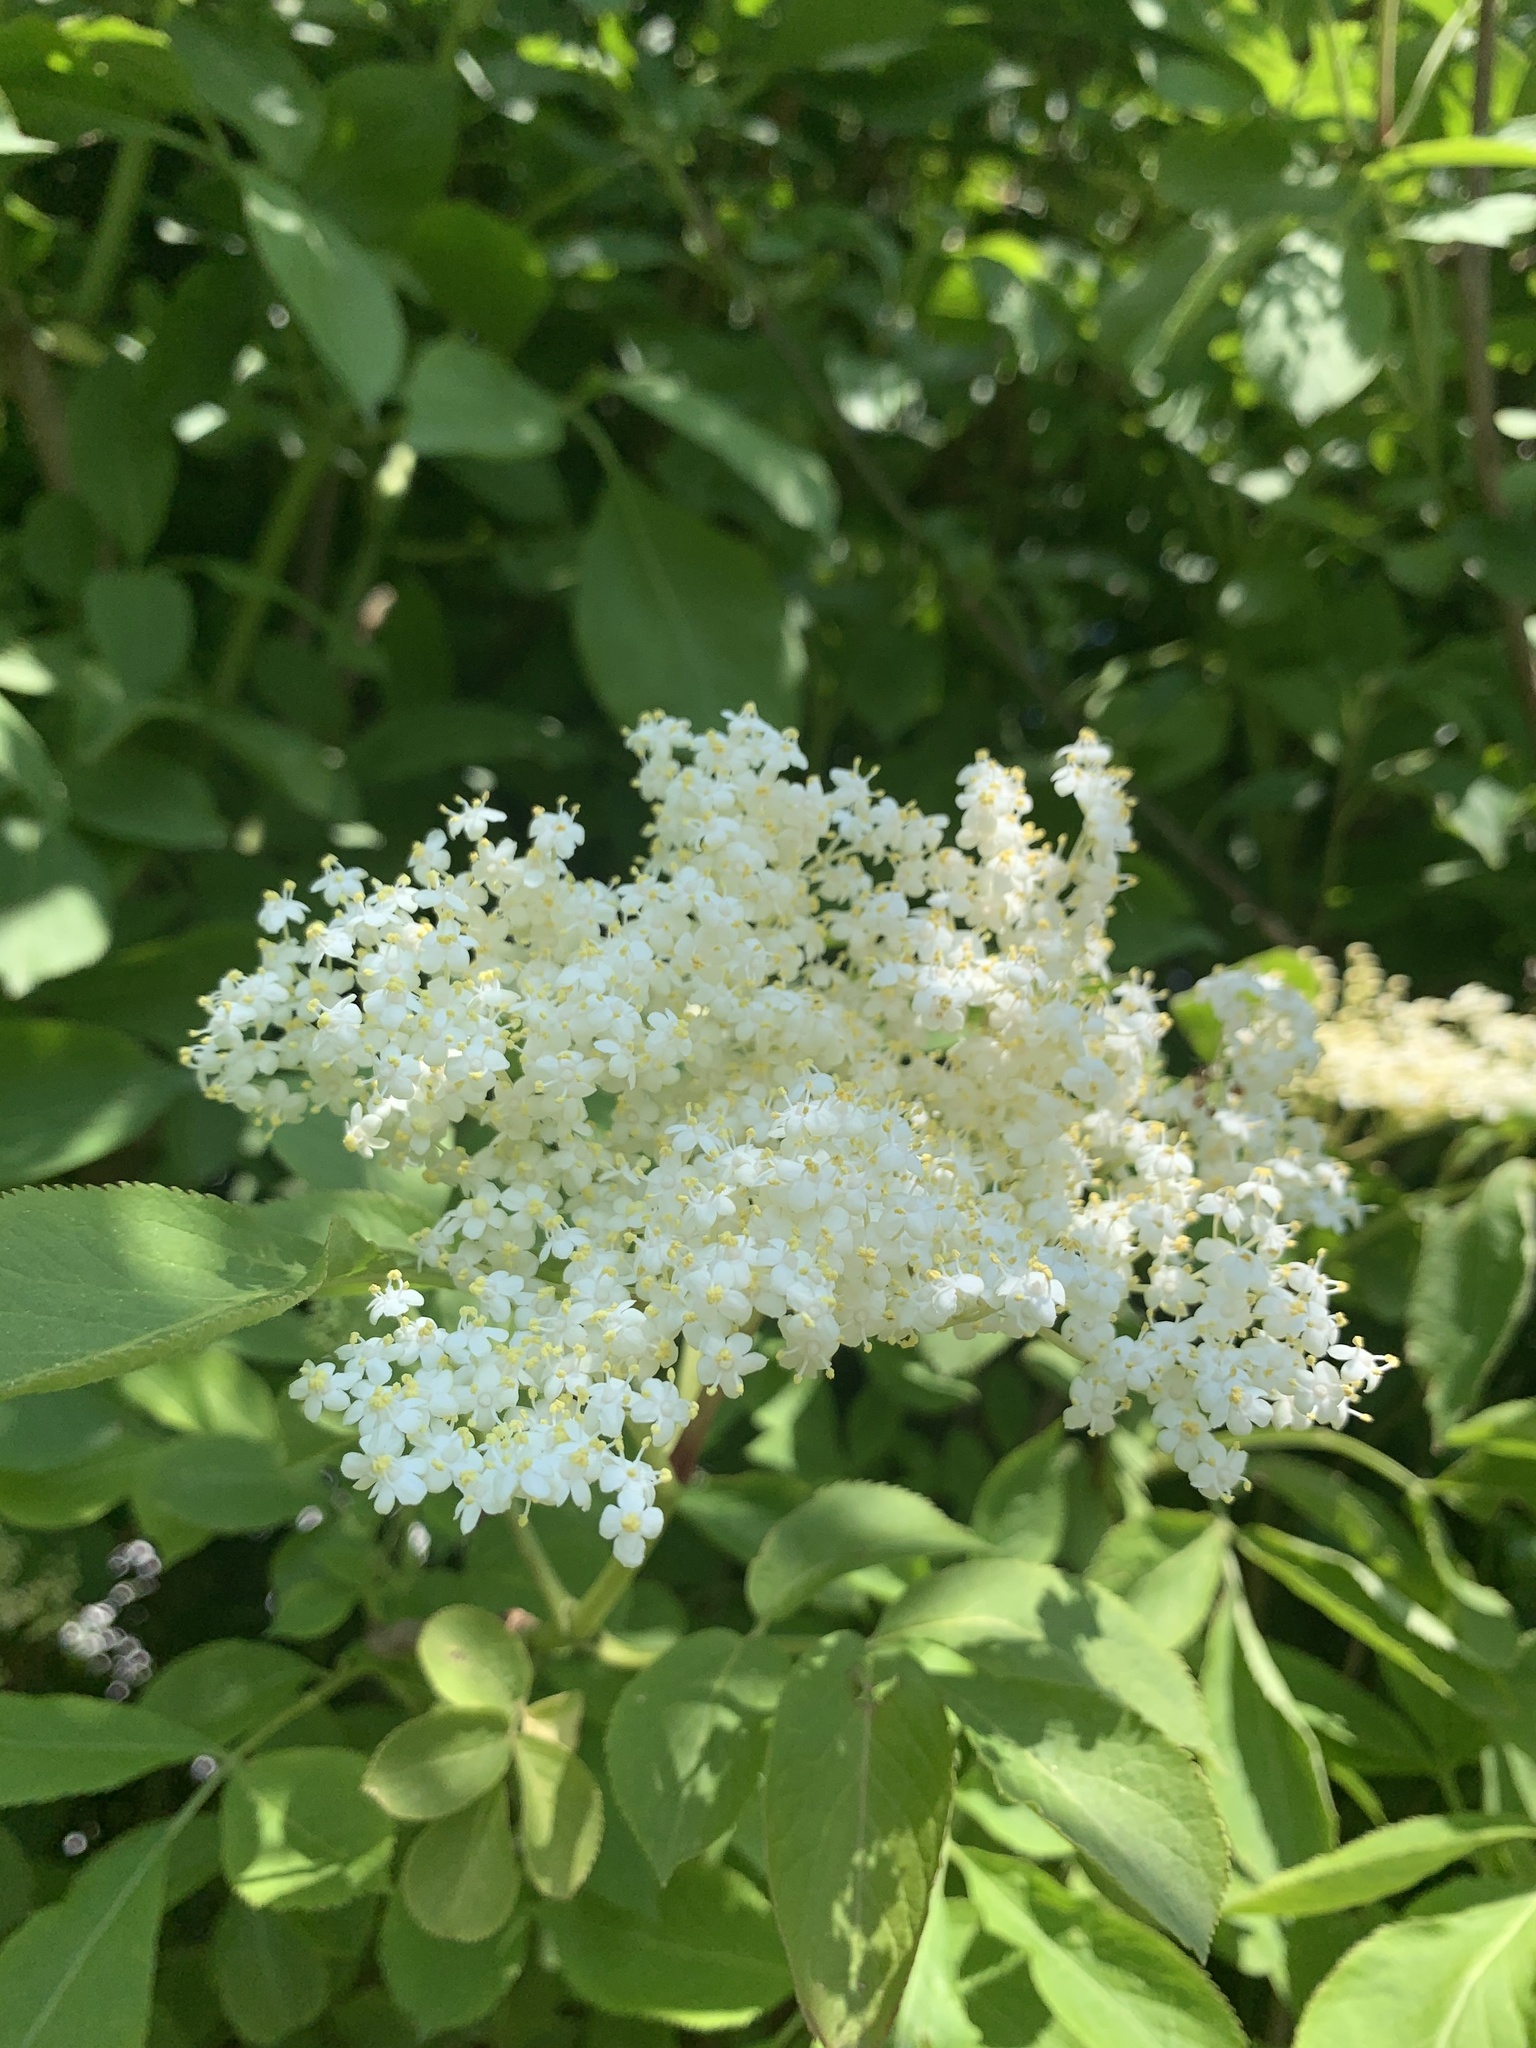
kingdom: Plantae
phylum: Tracheophyta
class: Magnoliopsida
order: Dipsacales
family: Viburnaceae
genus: Sambucus
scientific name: Sambucus nigra
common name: Elder
